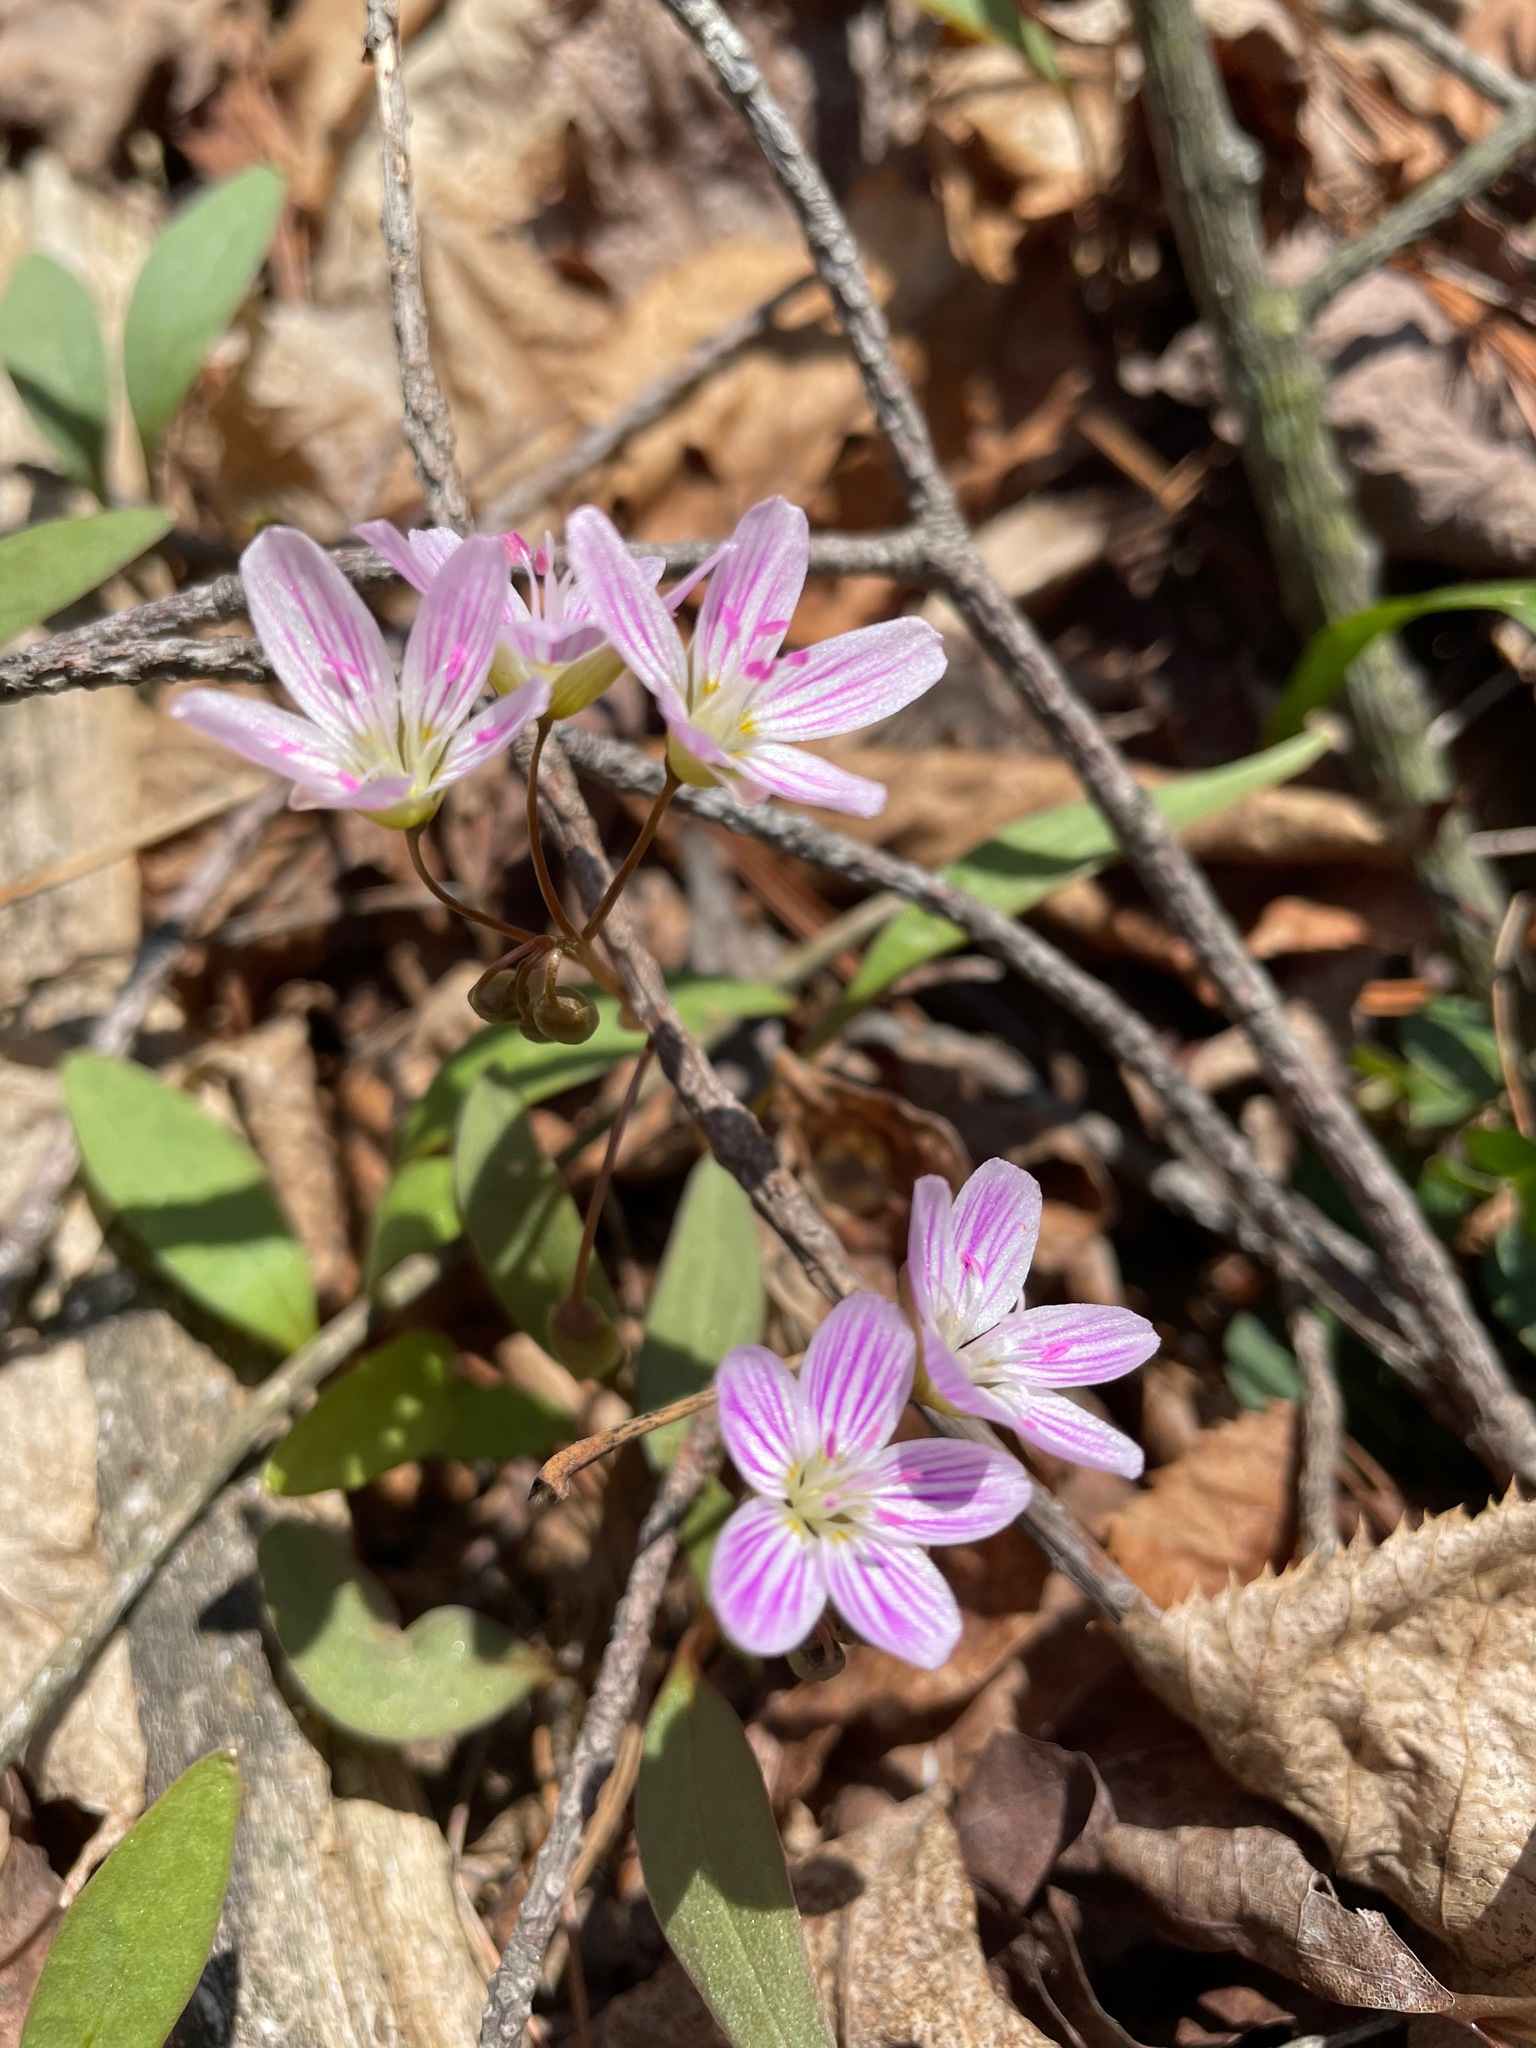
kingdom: Plantae
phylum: Tracheophyta
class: Magnoliopsida
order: Caryophyllales
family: Montiaceae
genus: Claytonia
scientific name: Claytonia caroliniana
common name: Carolina spring beauty
